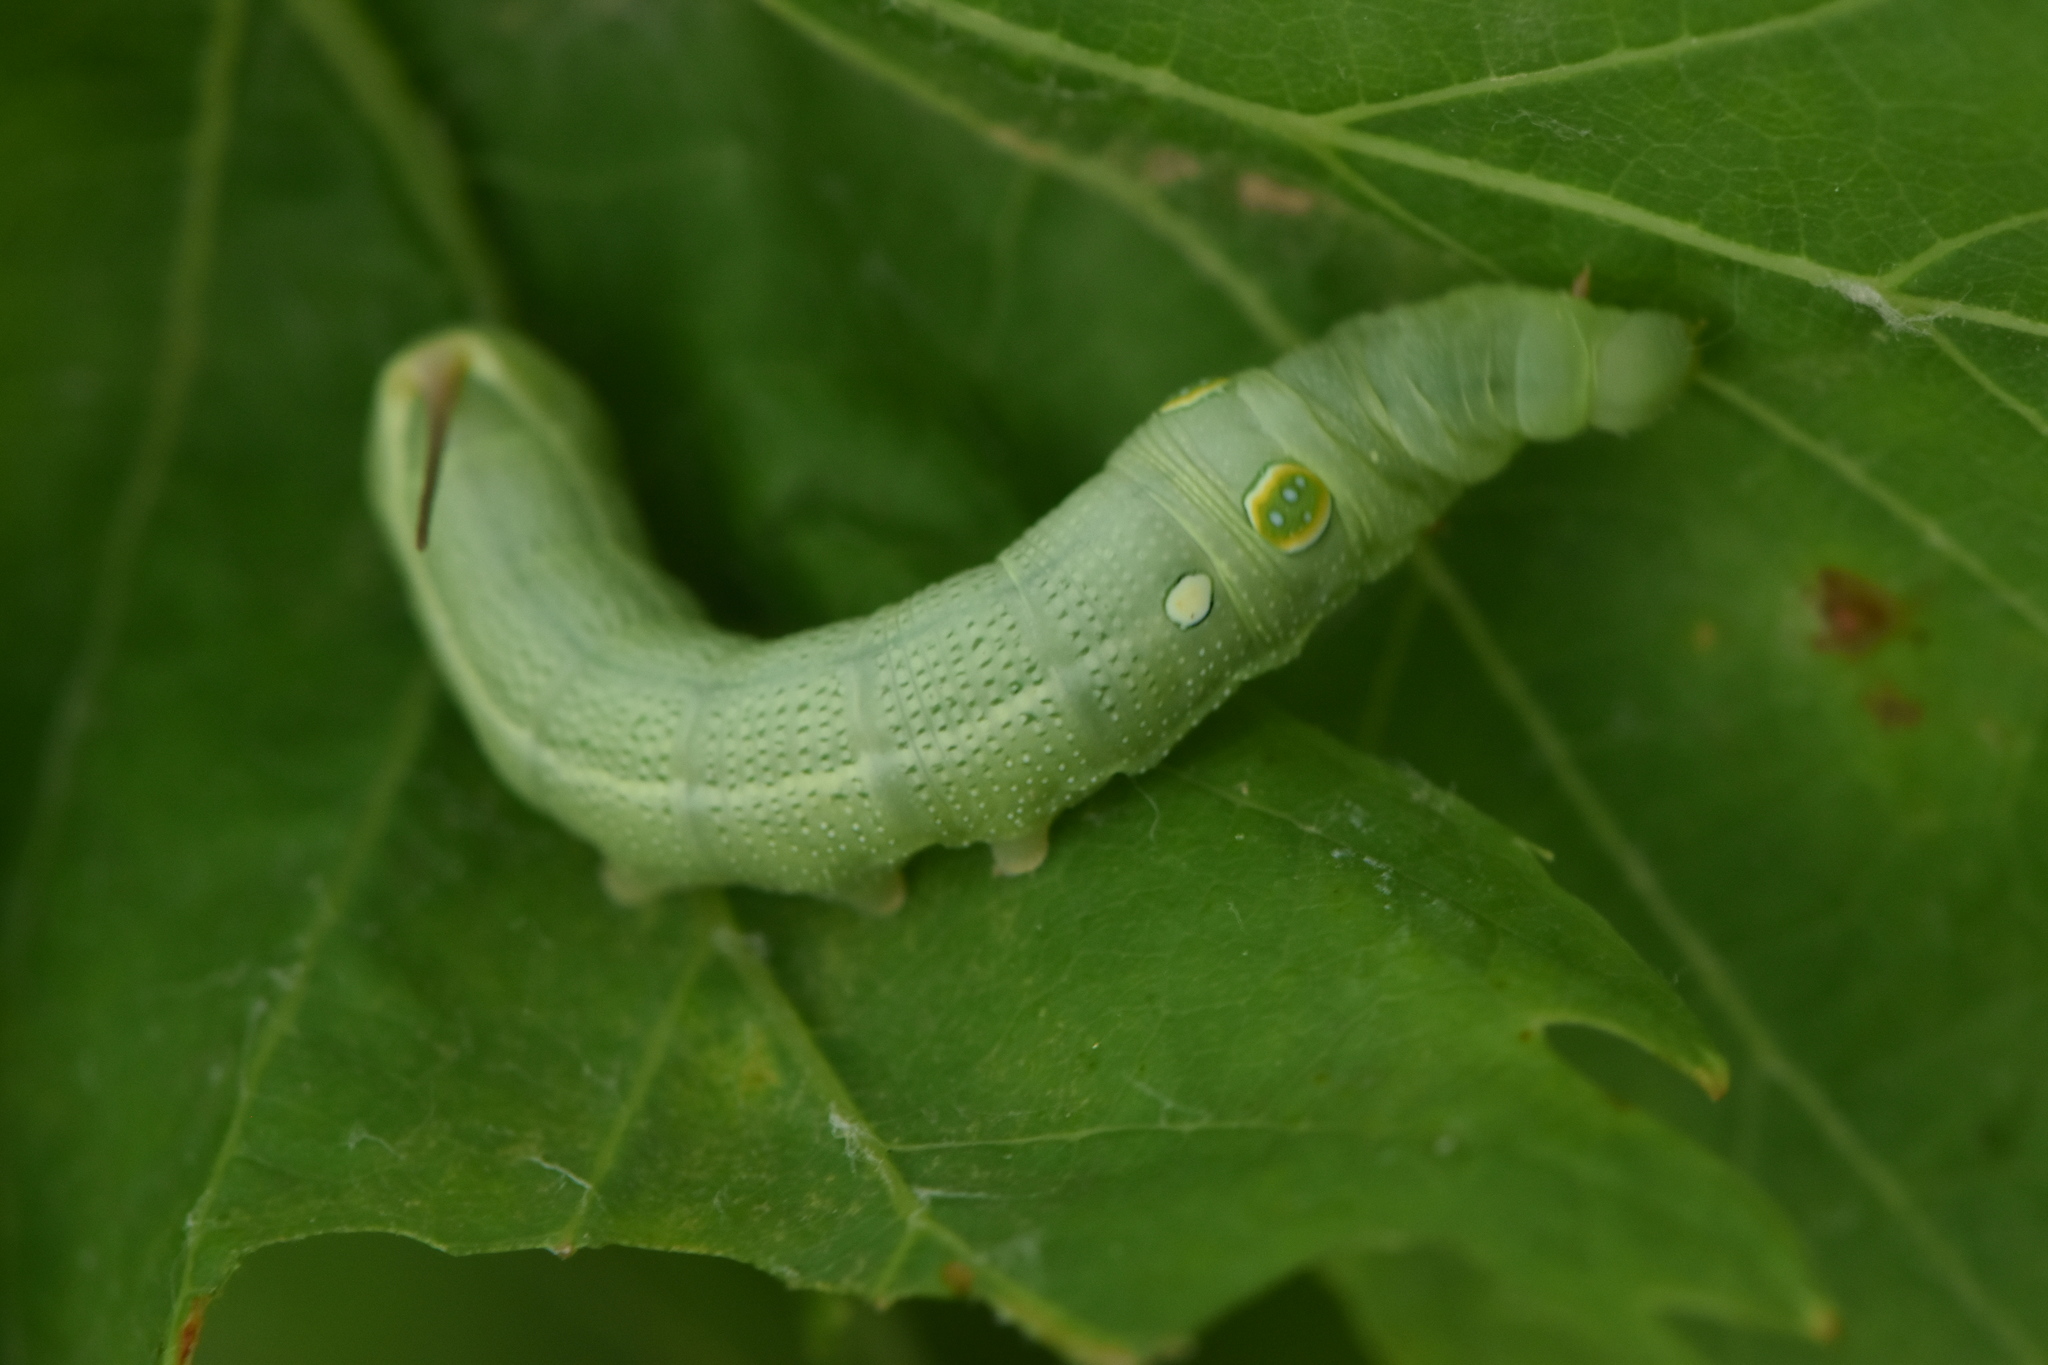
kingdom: Animalia
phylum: Arthropoda
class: Insecta
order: Lepidoptera
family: Sphingidae
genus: Hippotion
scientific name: Hippotion celerio
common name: Silver-striped hawk-moth
